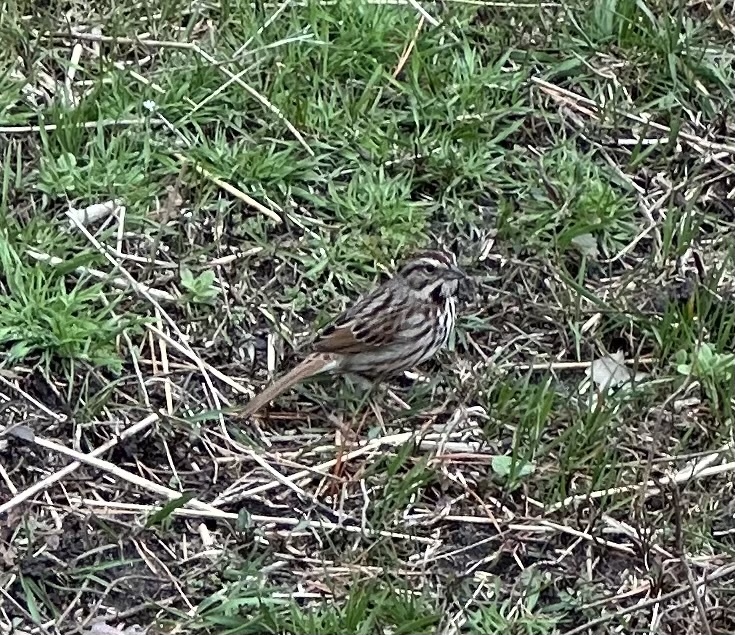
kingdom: Animalia
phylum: Chordata
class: Aves
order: Passeriformes
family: Passerellidae
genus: Melospiza
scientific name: Melospiza melodia
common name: Song sparrow
